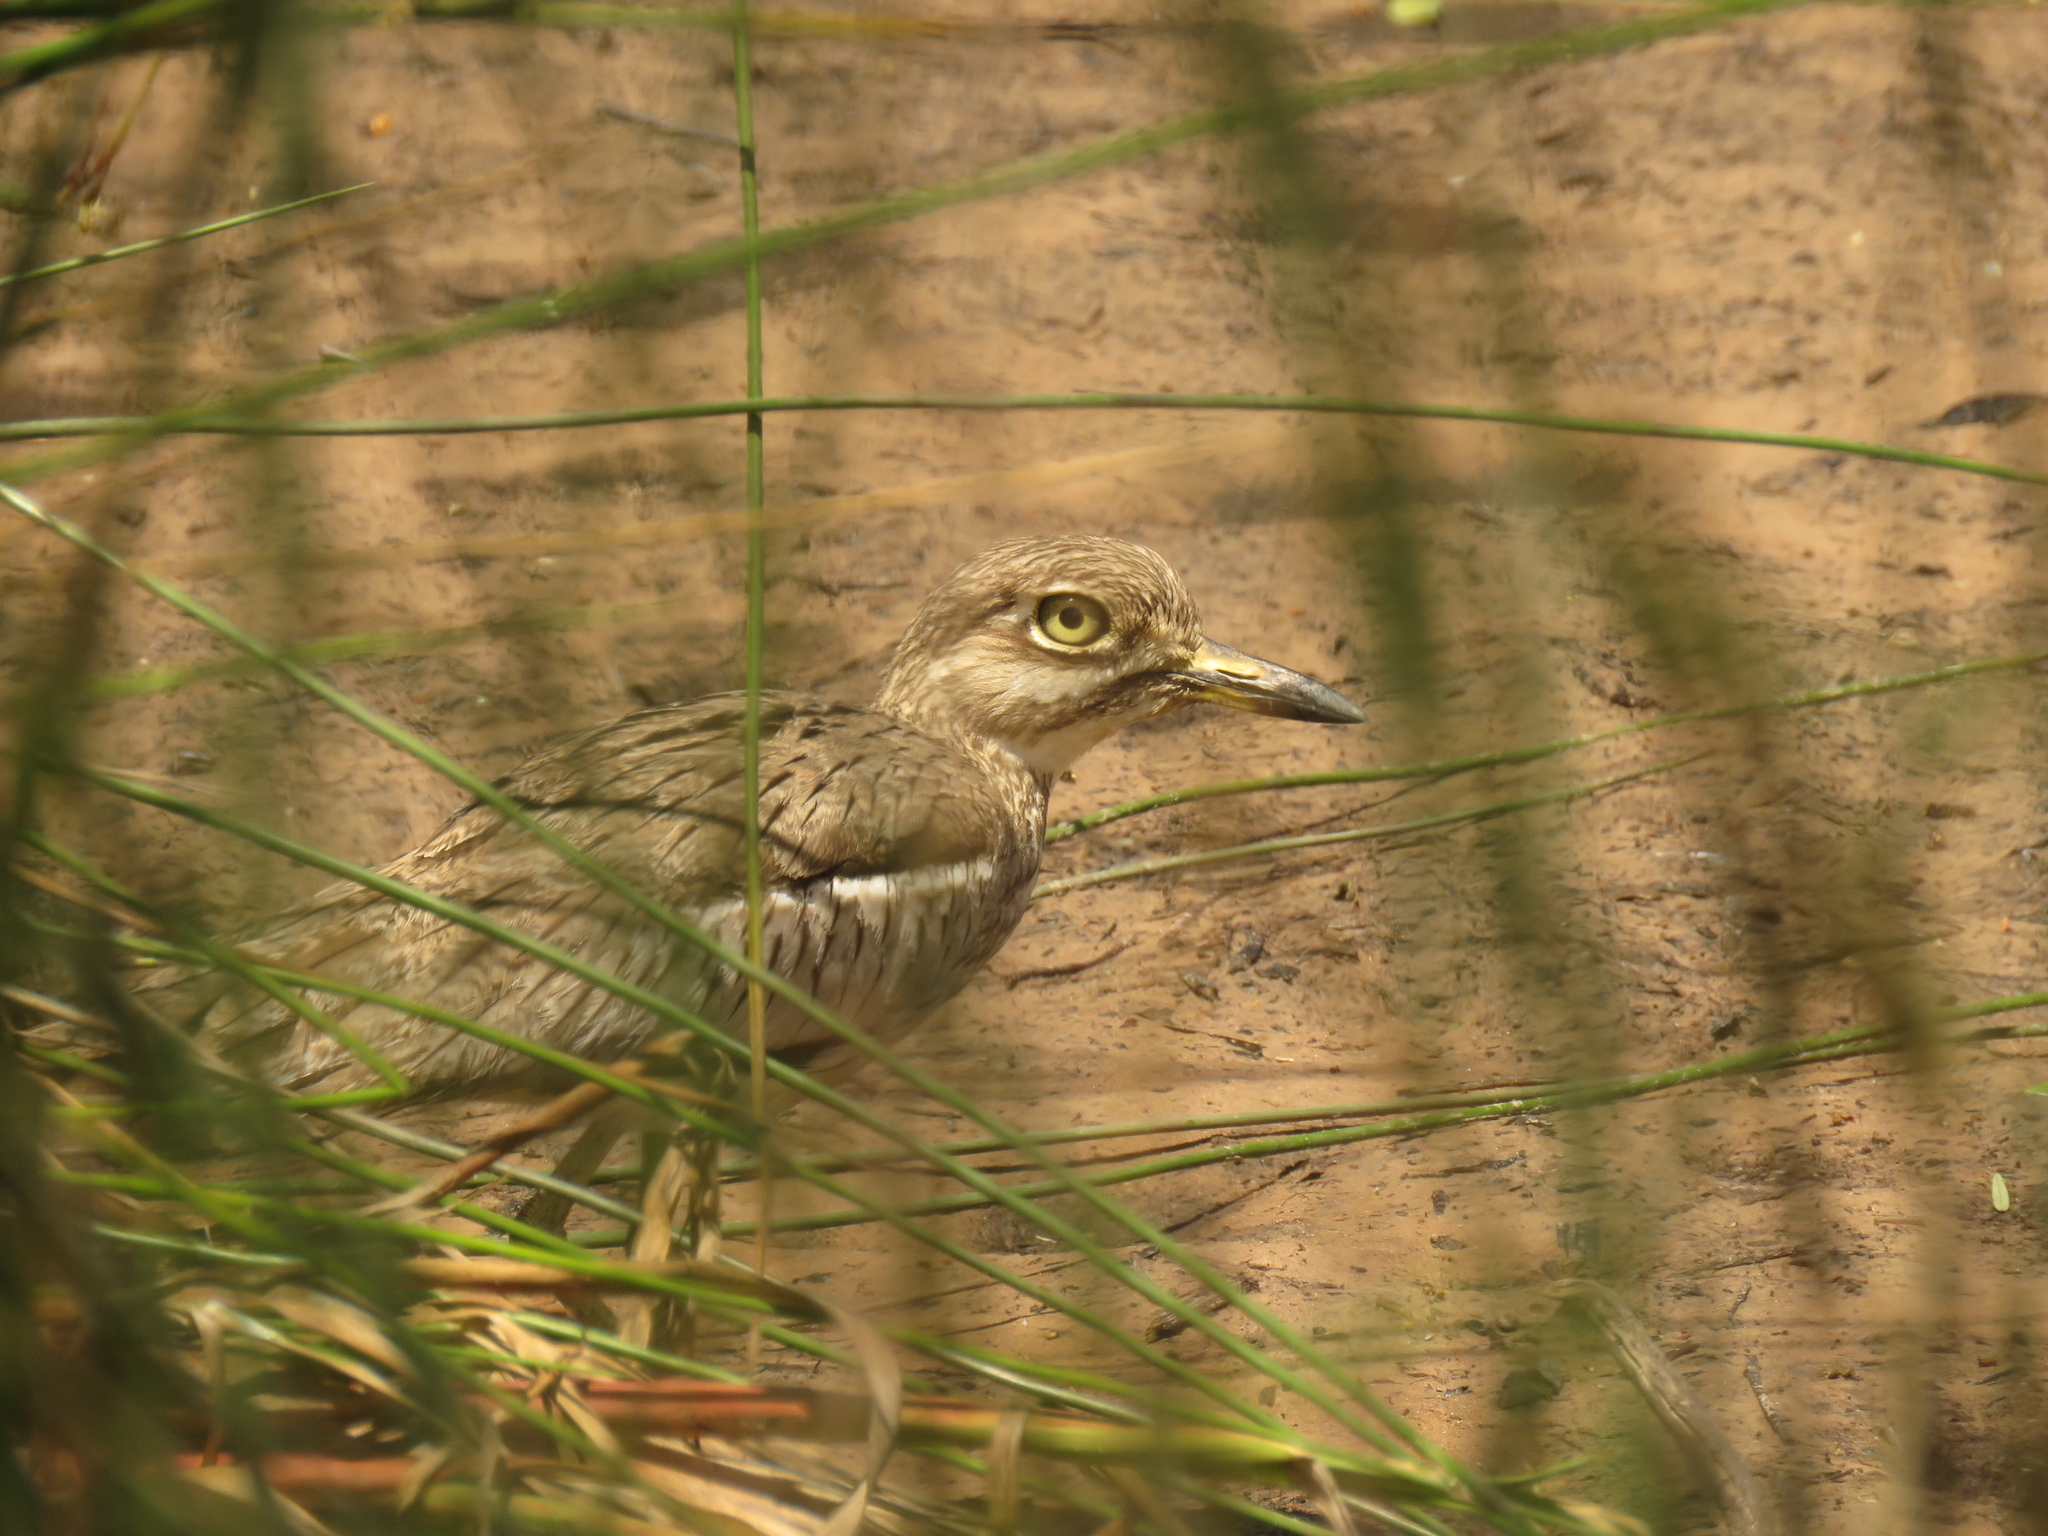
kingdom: Animalia
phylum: Chordata
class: Aves
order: Charadriiformes
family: Burhinidae
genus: Burhinus
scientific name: Burhinus vermiculatus
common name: Water thick-knee
